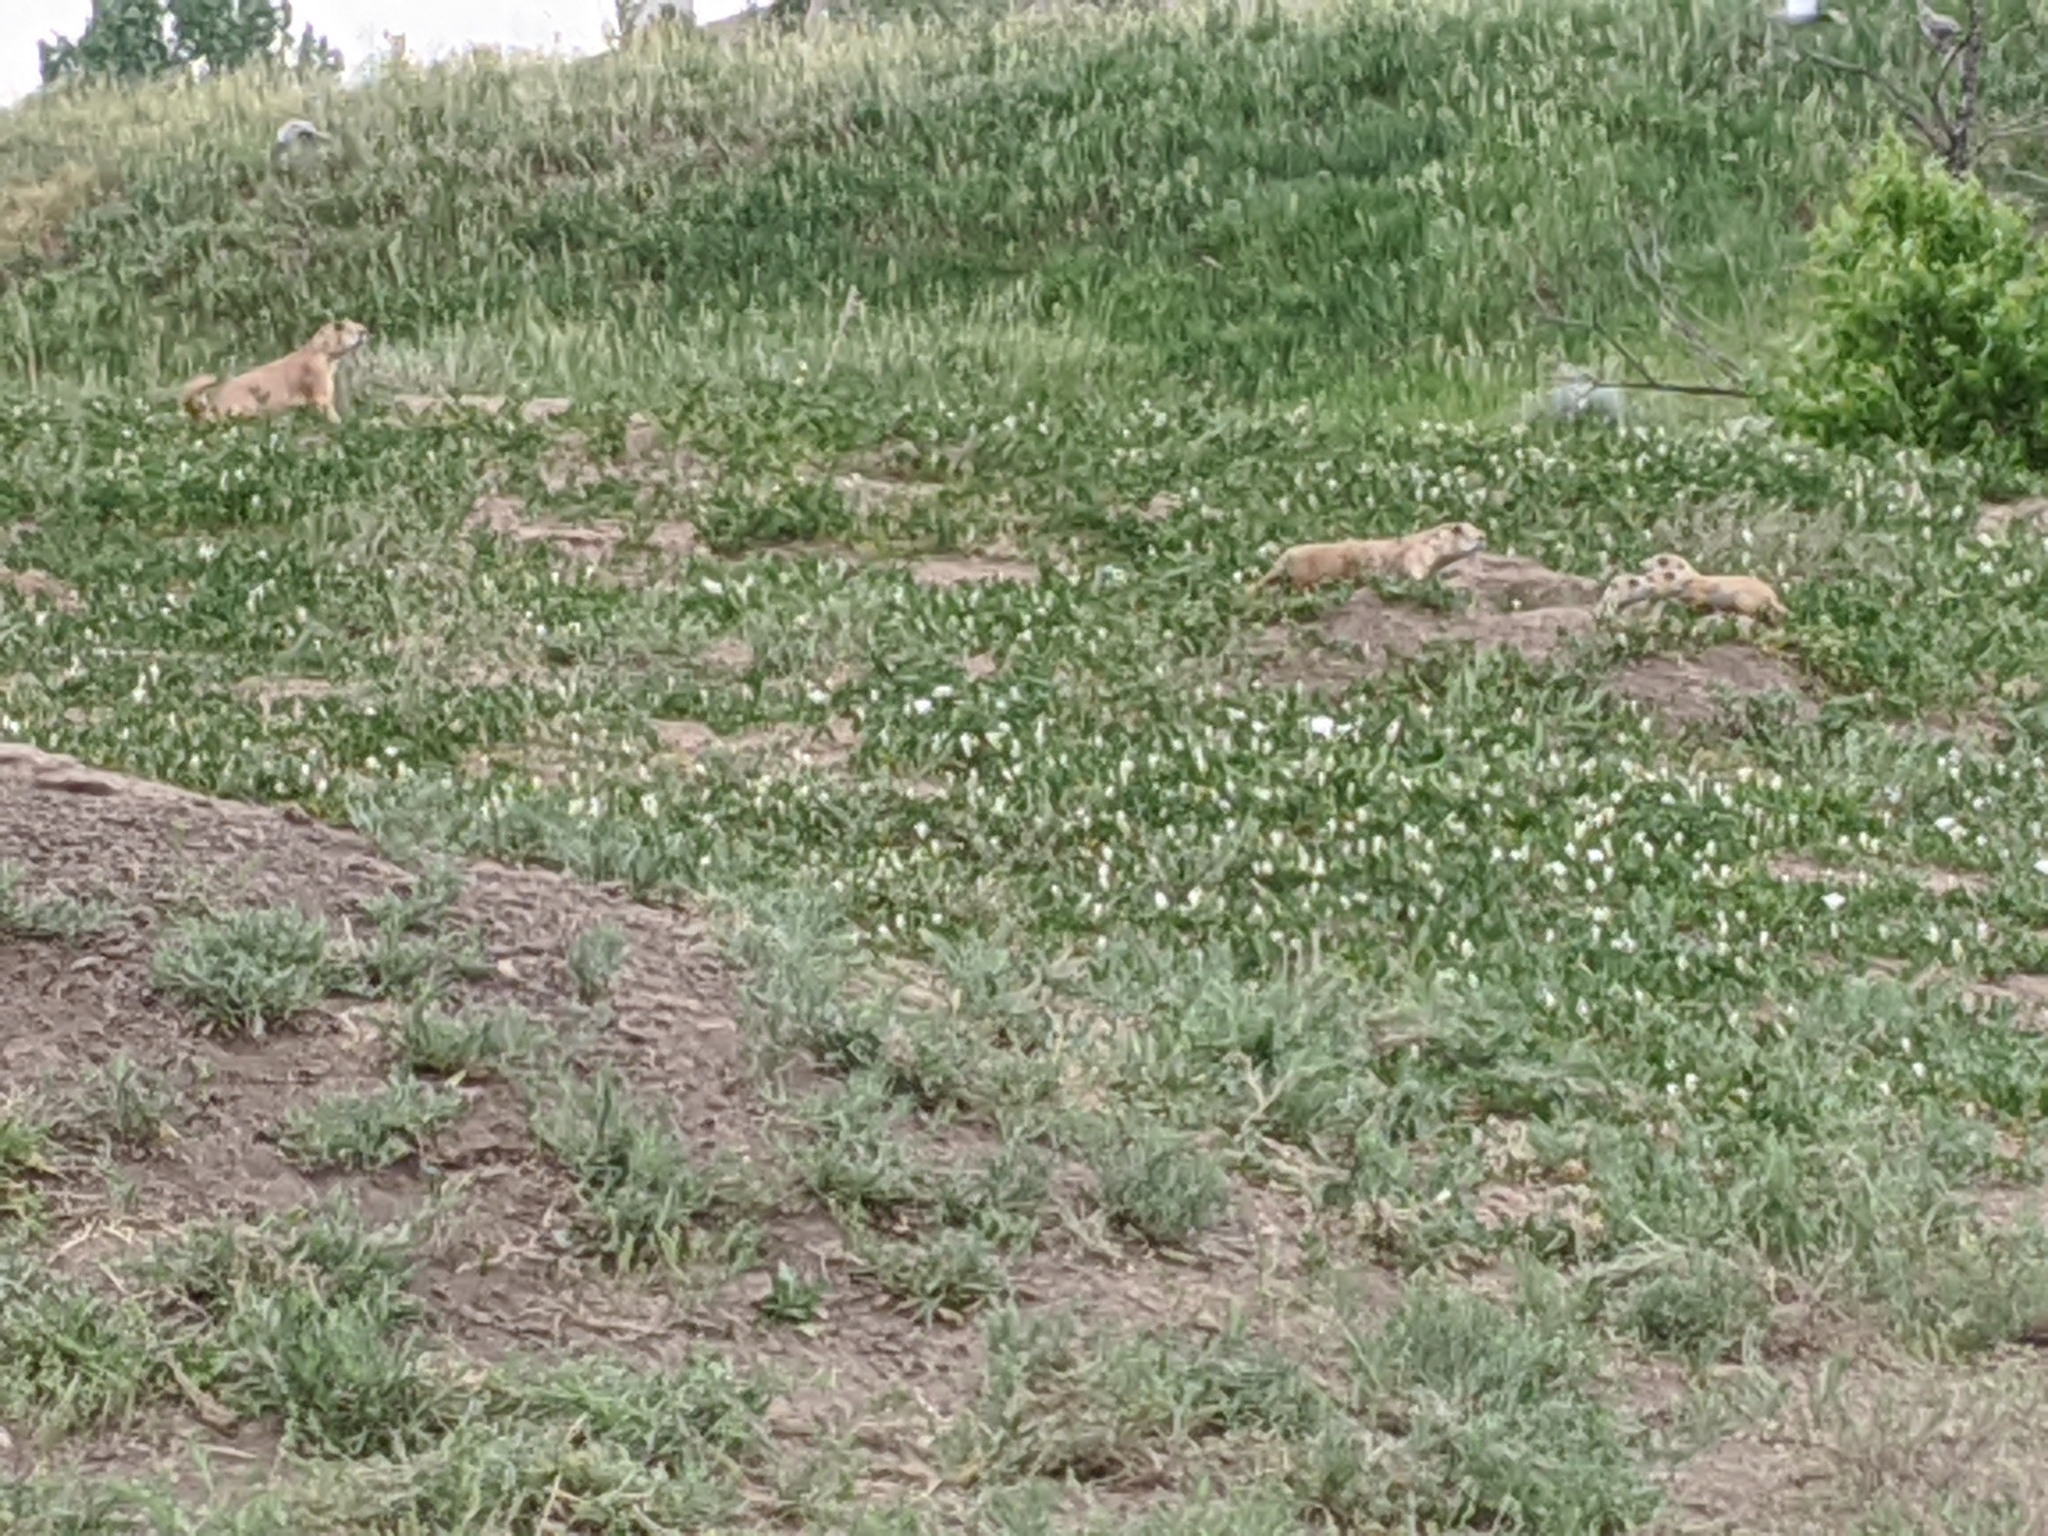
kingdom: Animalia
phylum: Chordata
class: Mammalia
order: Rodentia
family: Sciuridae
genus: Cynomys
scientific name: Cynomys ludovicianus
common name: Black-tailed prairie dog
